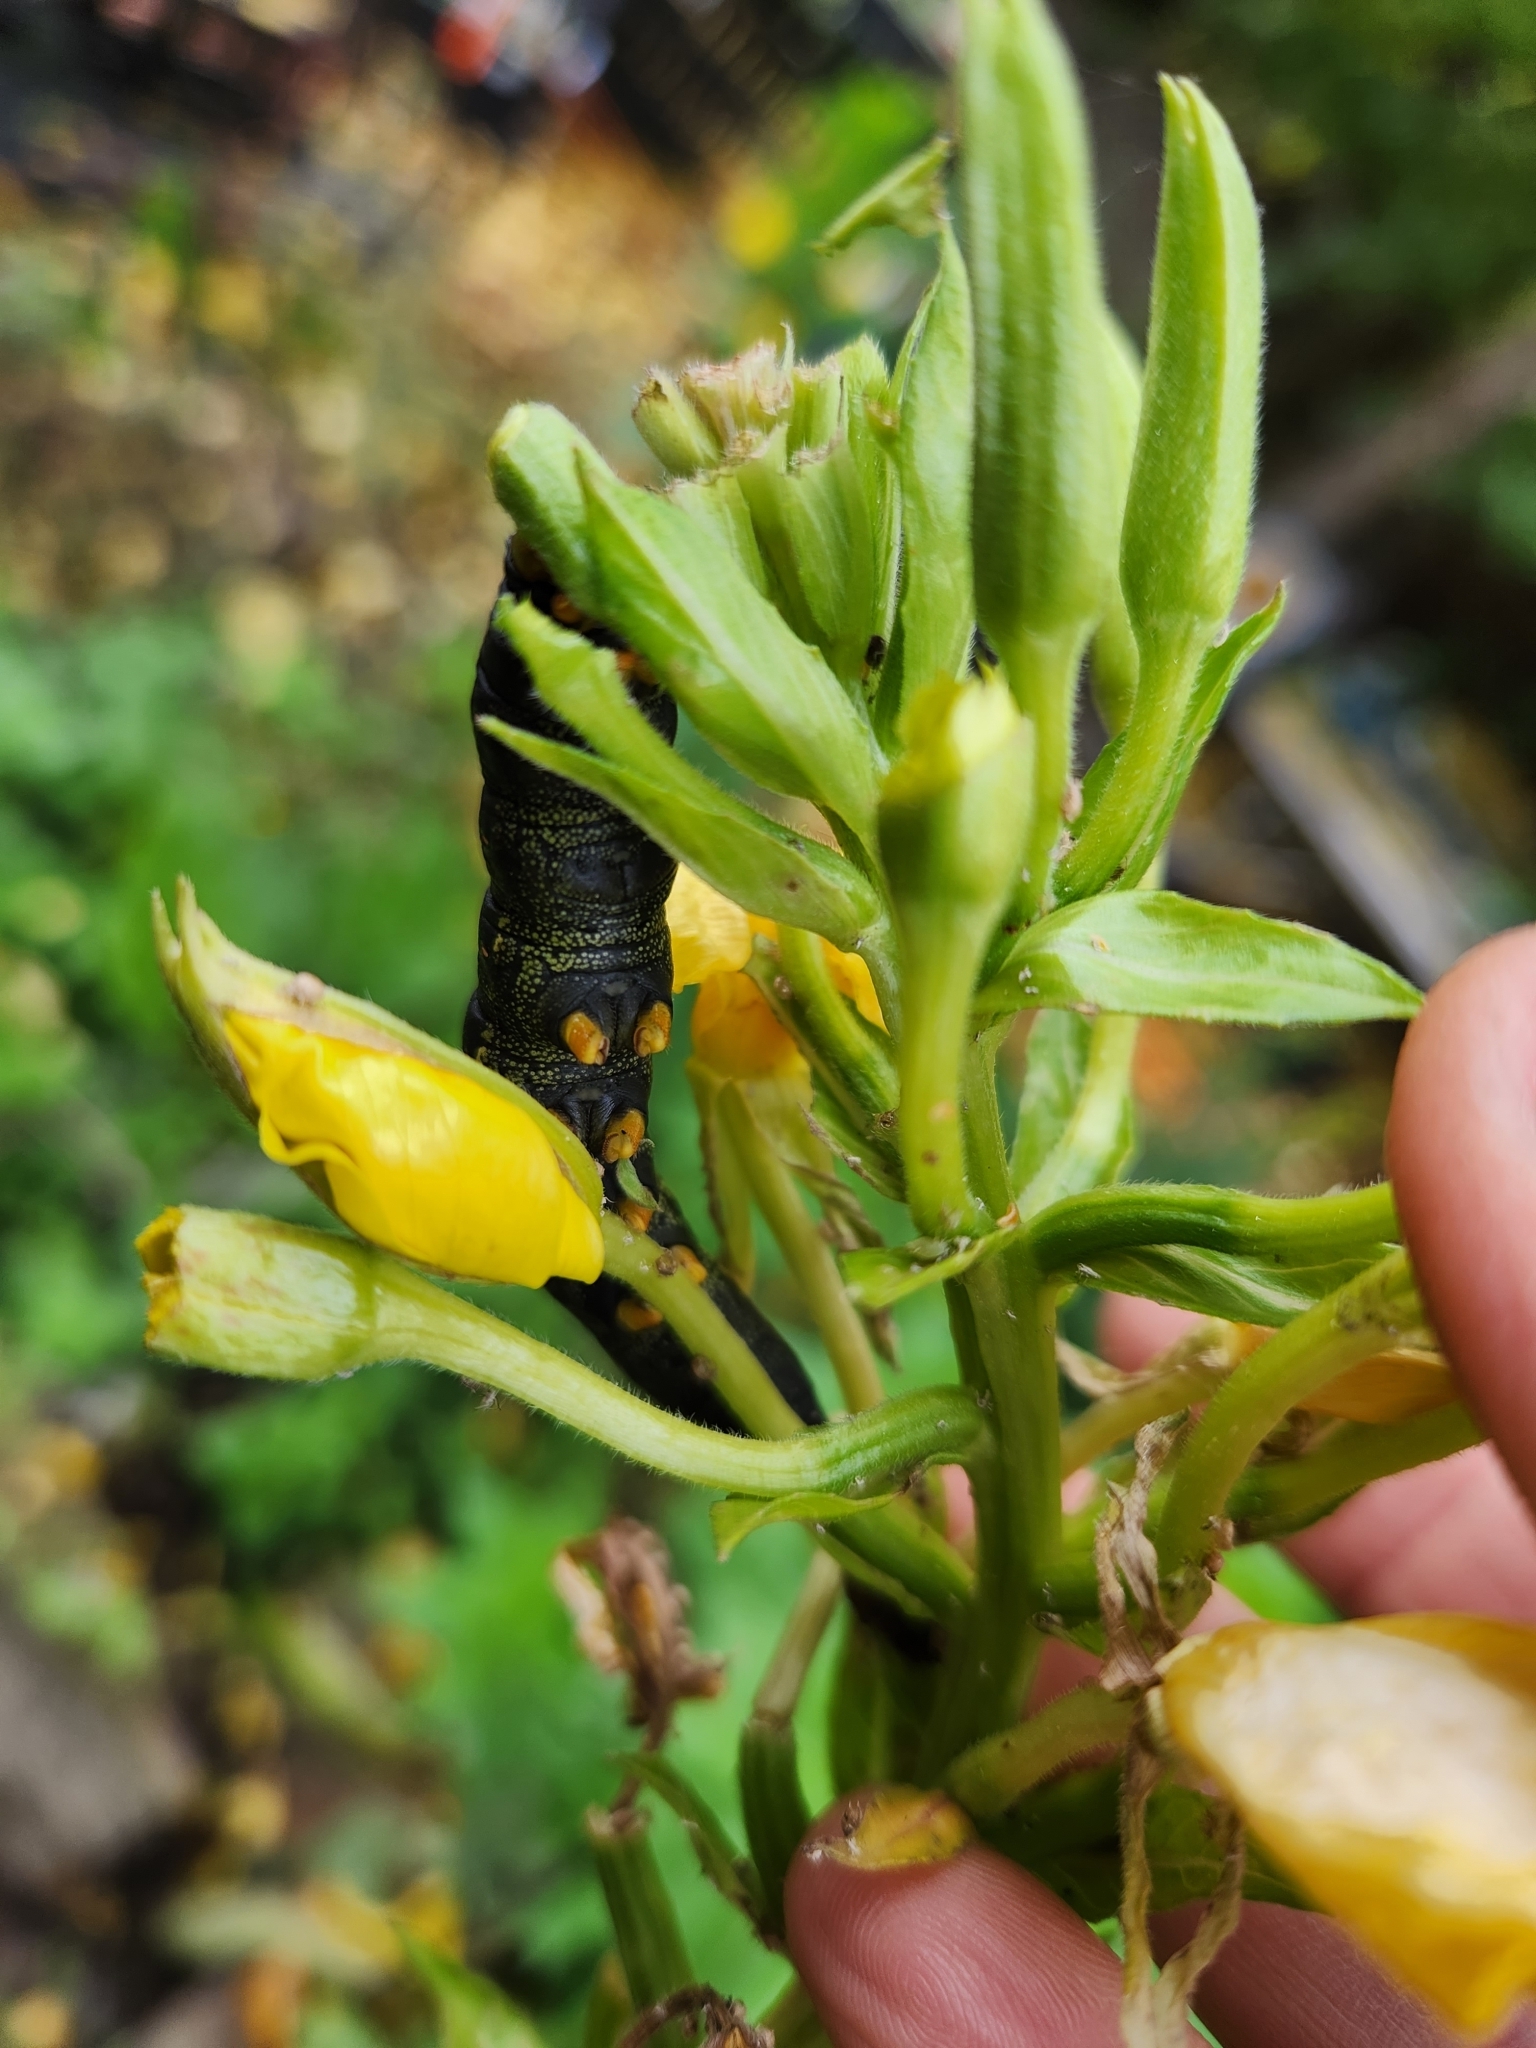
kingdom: Animalia
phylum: Arthropoda
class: Insecta
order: Lepidoptera
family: Sphingidae
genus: Hyles
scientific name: Hyles lineata
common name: White-lined sphinx
